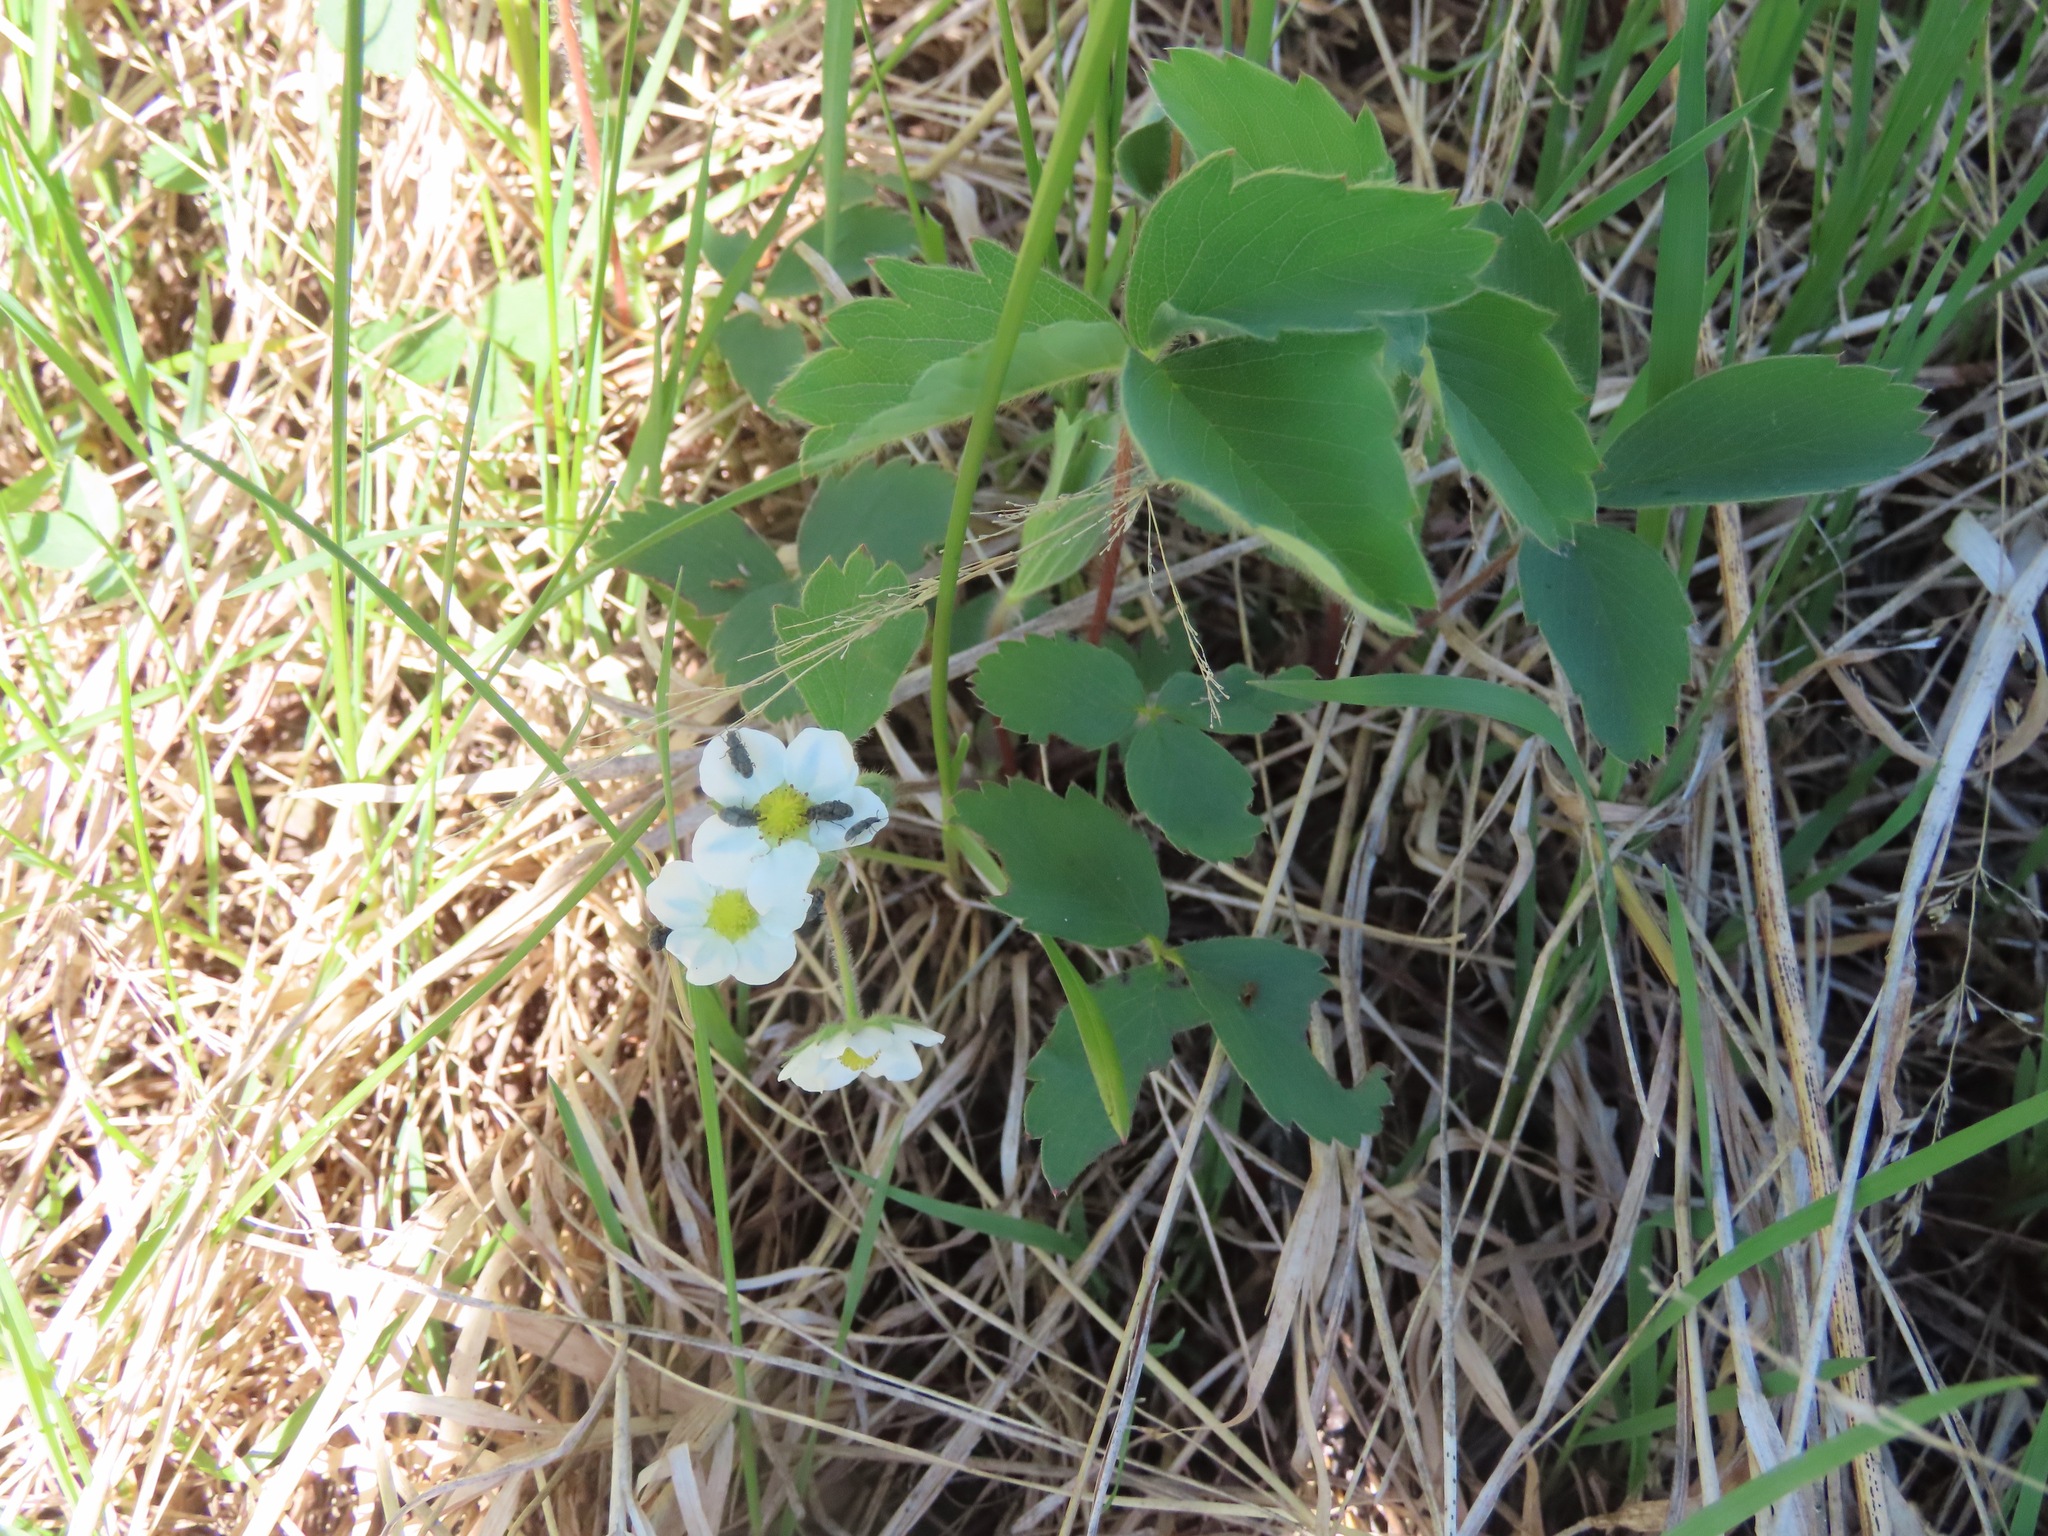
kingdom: Plantae
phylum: Tracheophyta
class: Magnoliopsida
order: Rosales
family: Rosaceae
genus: Fragaria
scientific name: Fragaria virginiana
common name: Thickleaved wild strawberry
